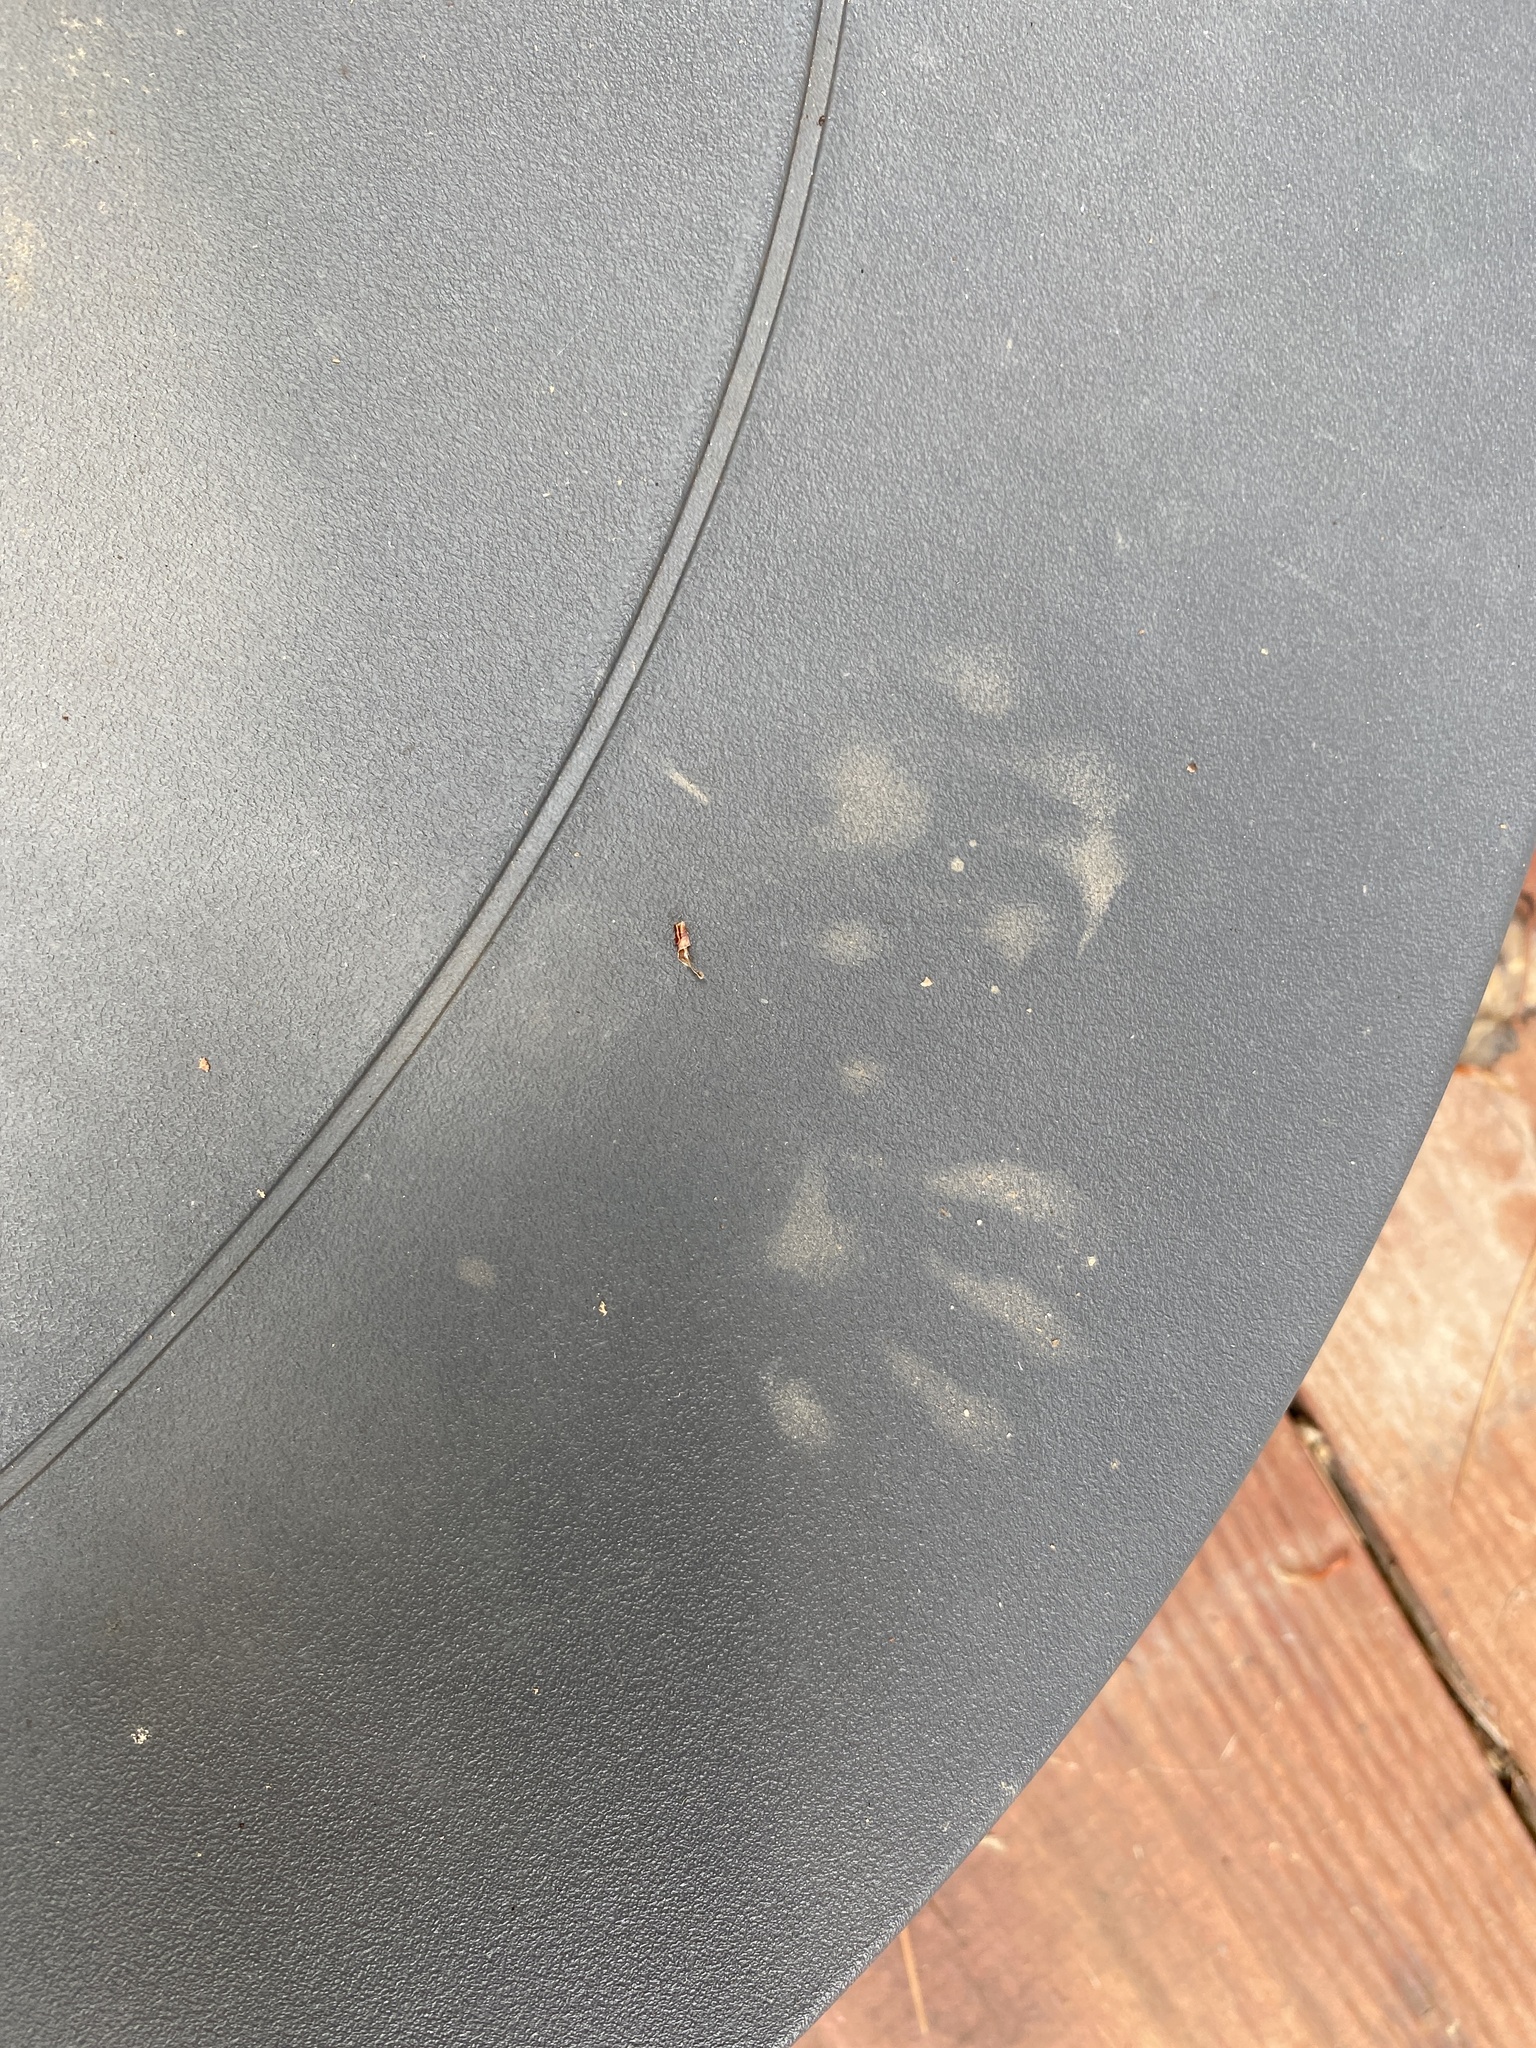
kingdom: Animalia
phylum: Chordata
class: Mammalia
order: Carnivora
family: Procyonidae
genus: Procyon
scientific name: Procyon lotor
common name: Raccoon
